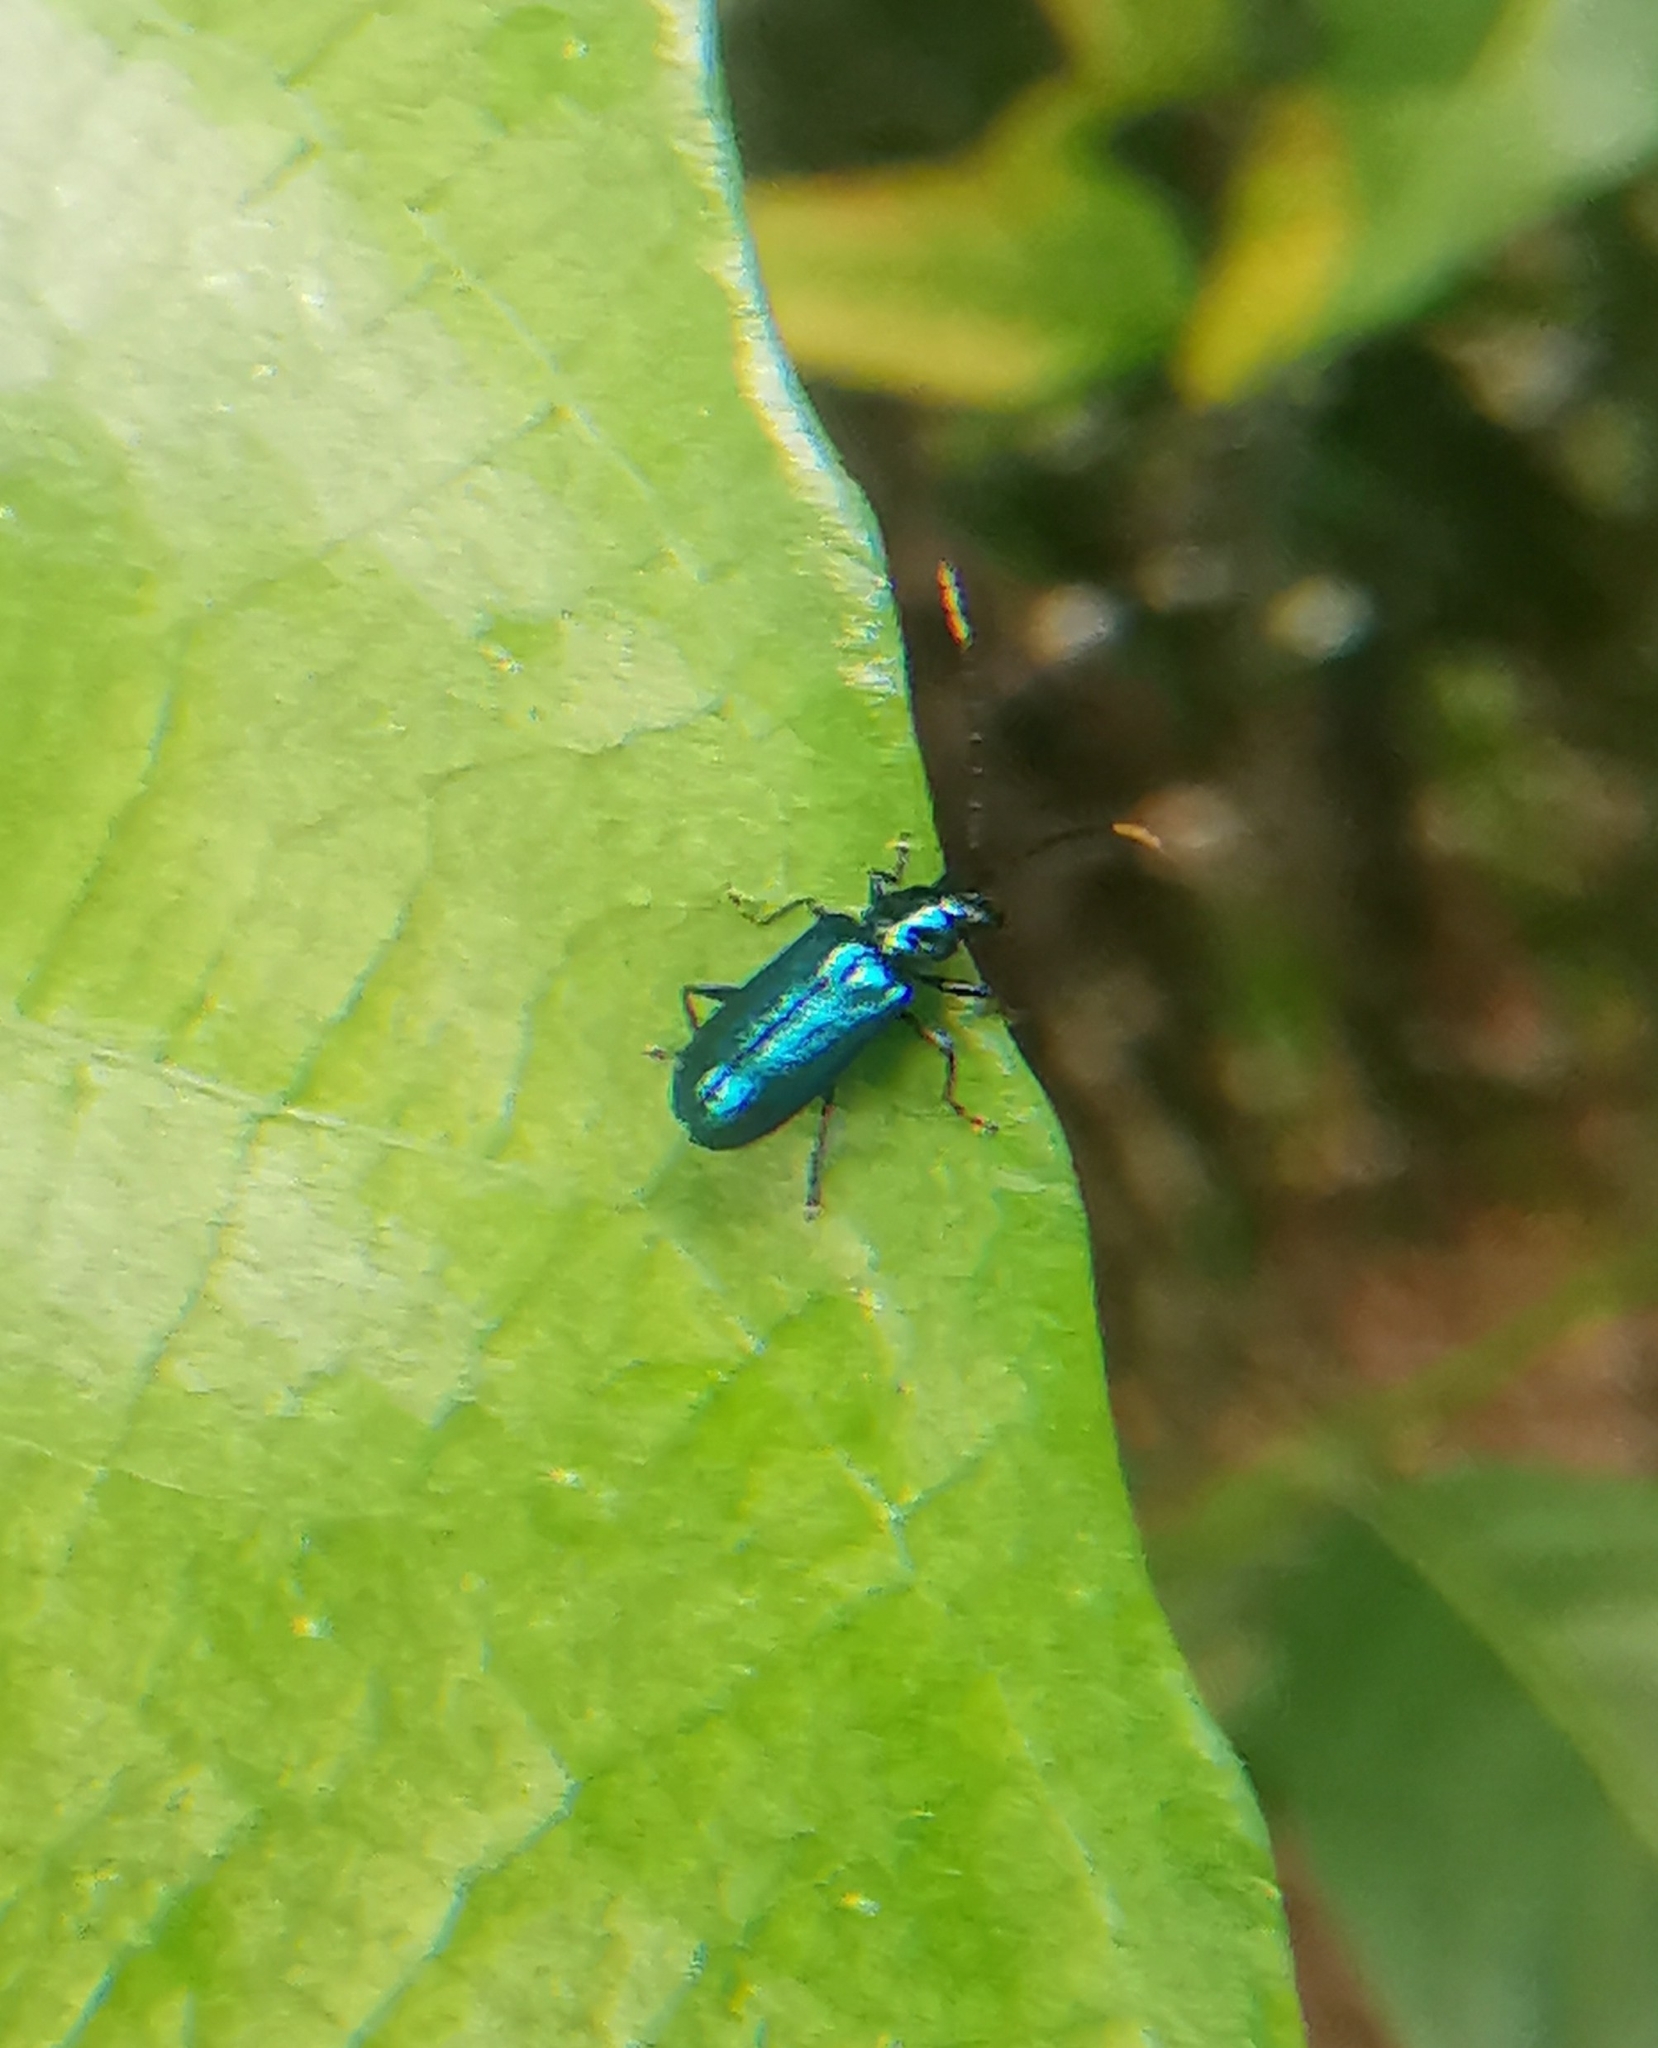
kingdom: Animalia
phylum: Arthropoda
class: Insecta
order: Coleoptera
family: Chrysomelidae
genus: Hoplosaenidea
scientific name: Hoplosaenidea
